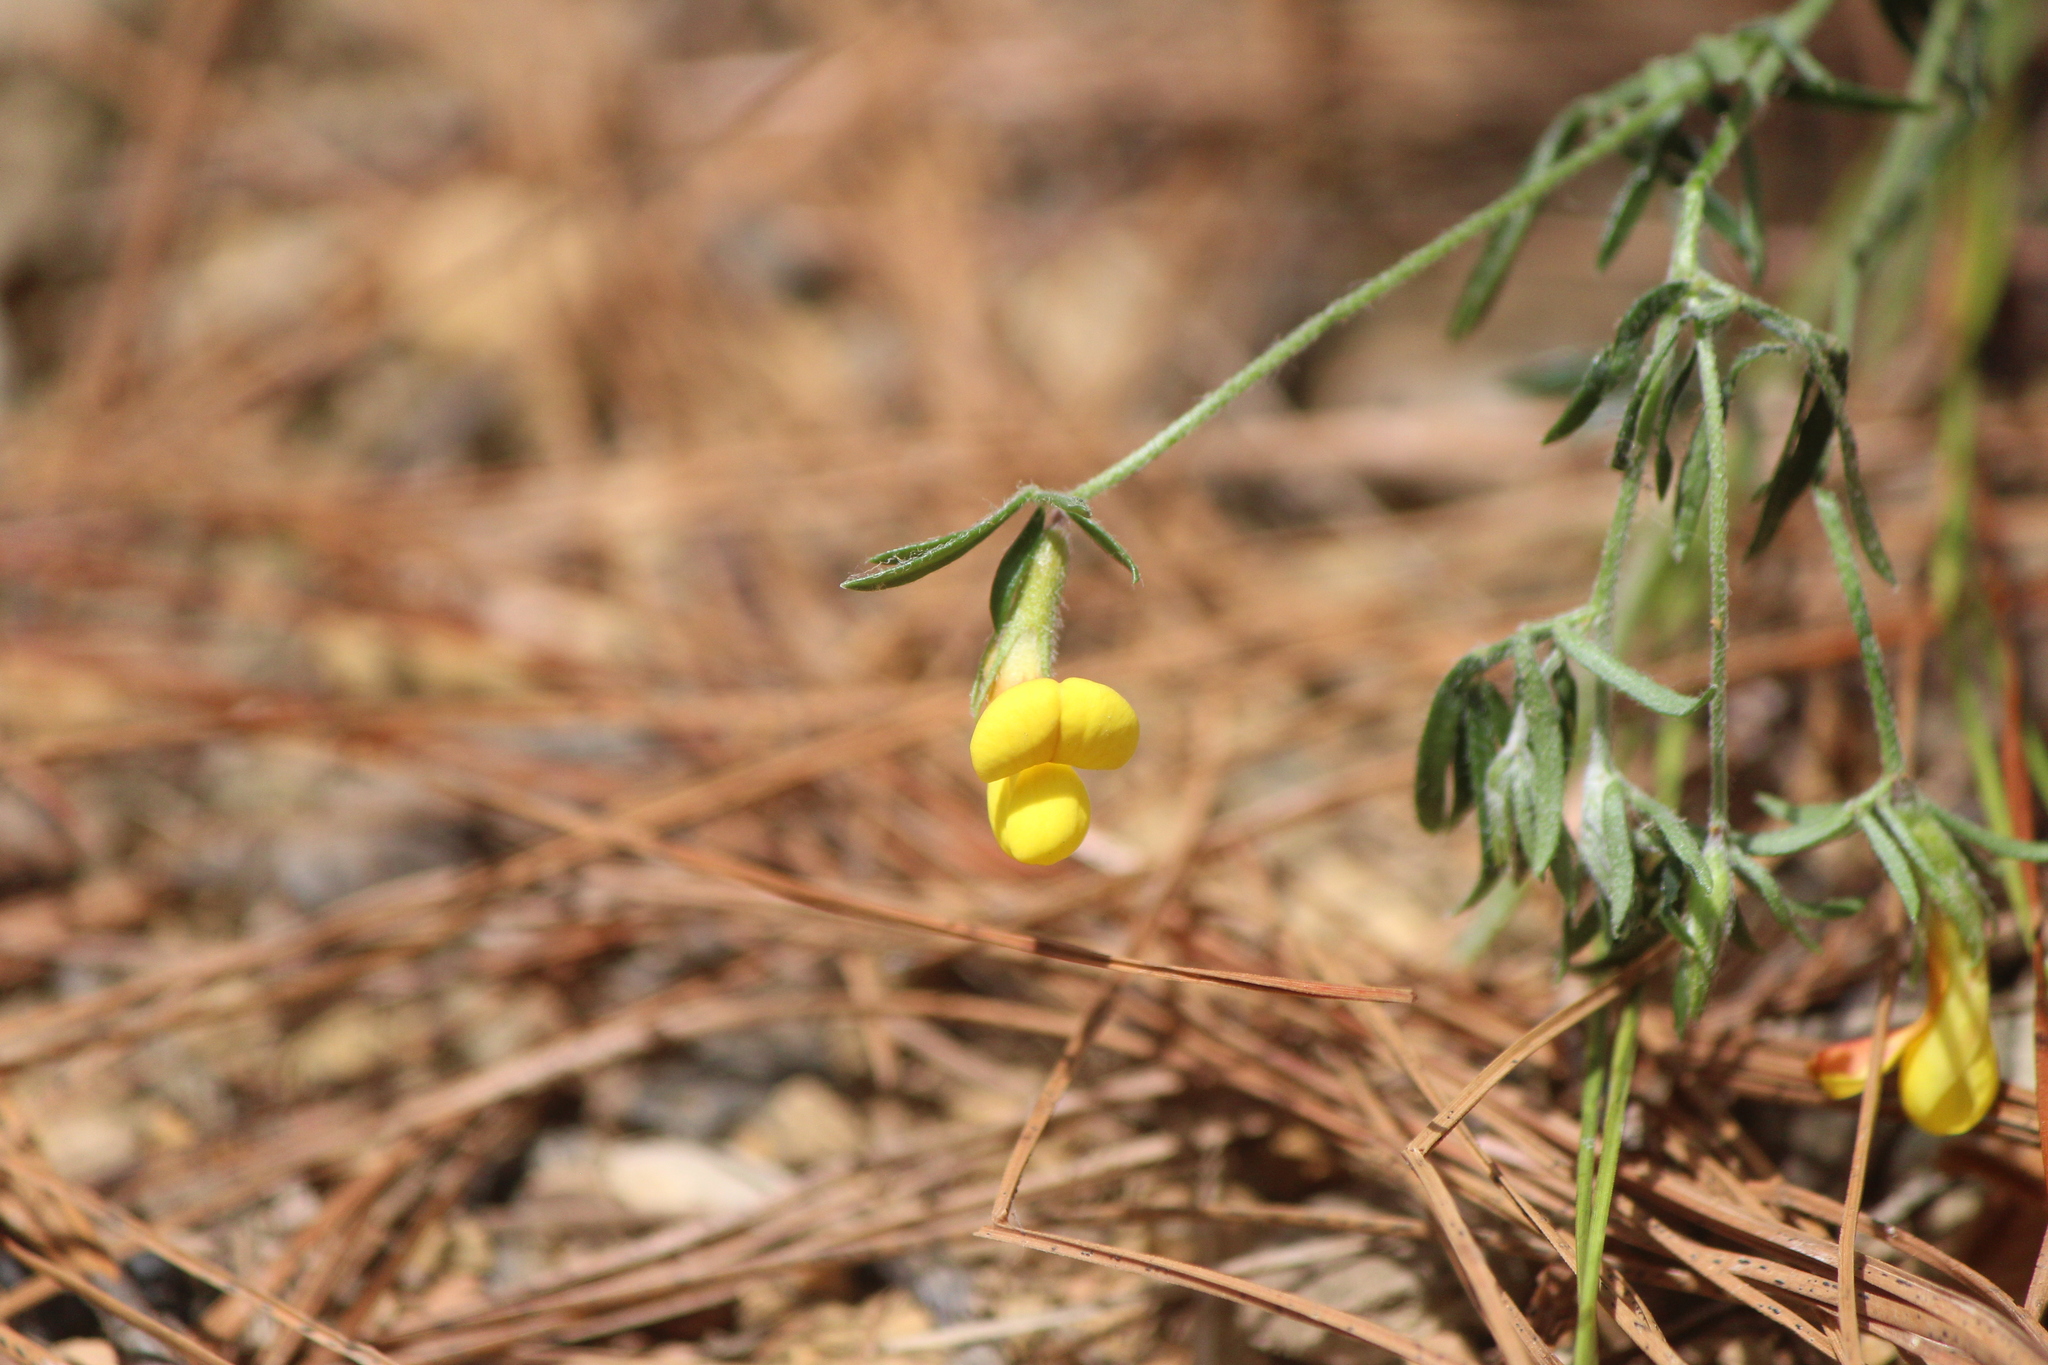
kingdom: Plantae
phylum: Tracheophyta
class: Magnoliopsida
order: Fabales
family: Fabaceae
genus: Acmispon
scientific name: Acmispon oroboides
